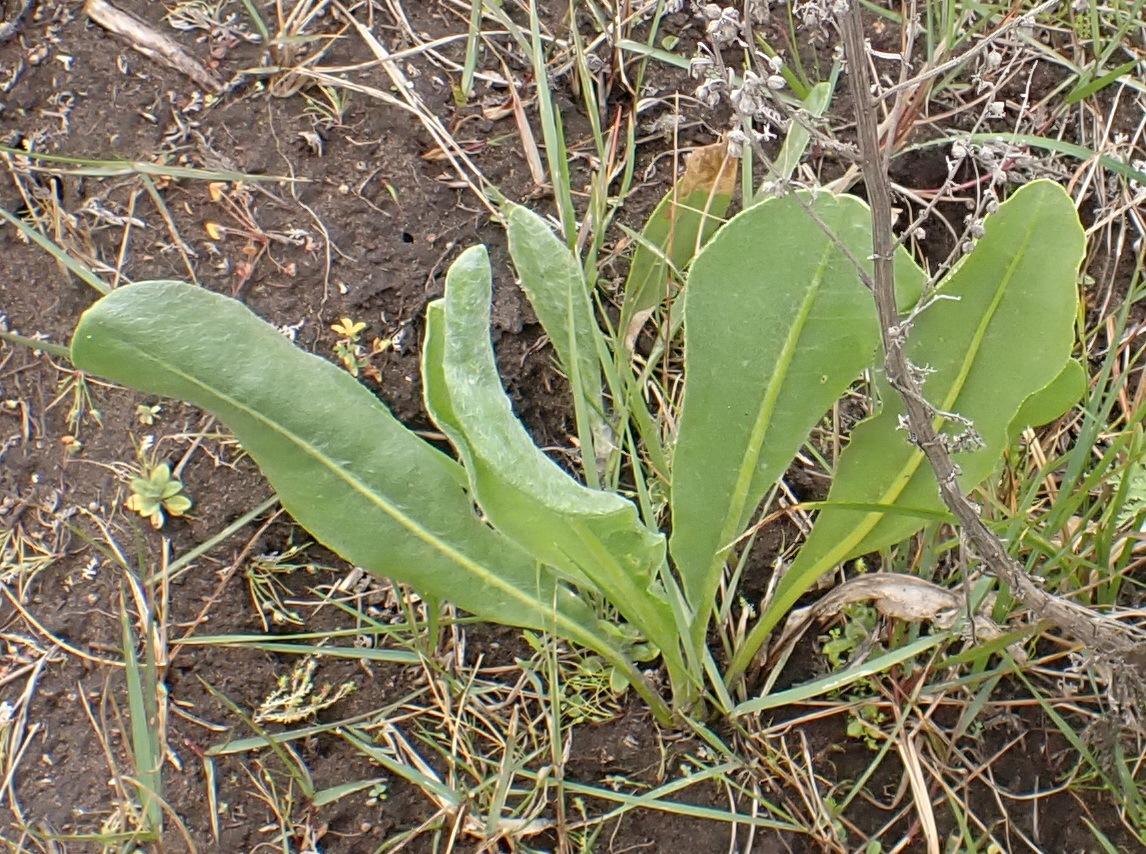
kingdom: Plantae
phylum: Tracheophyta
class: Magnoliopsida
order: Asterales
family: Asteraceae
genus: Senecio
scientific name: Senecio coronatus
